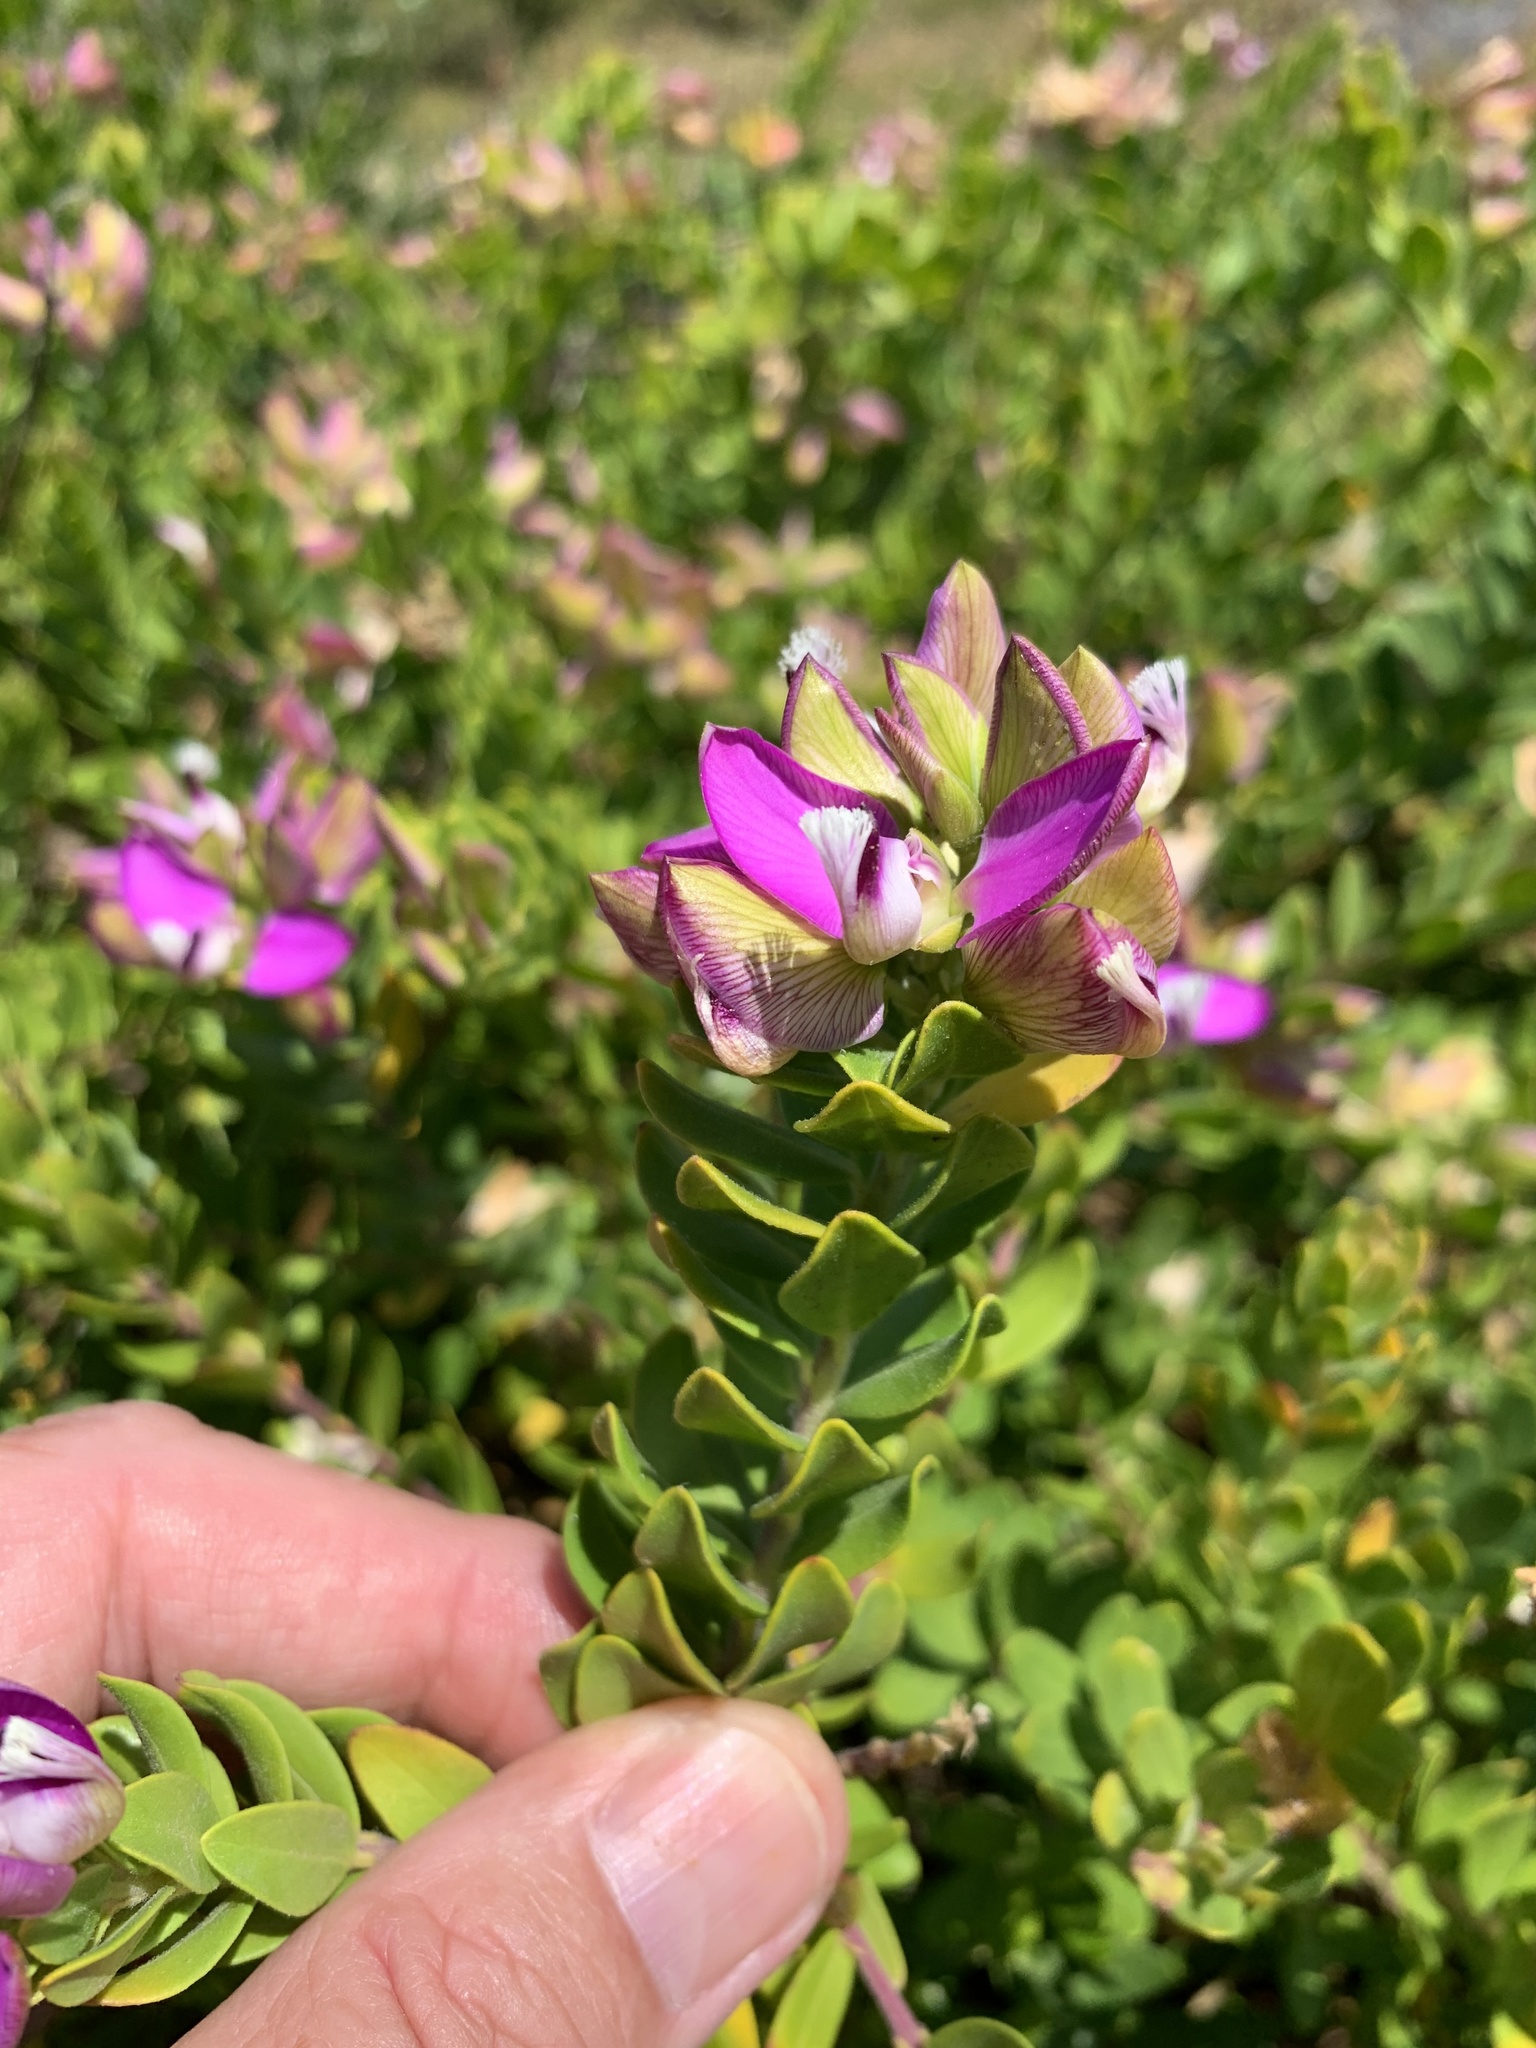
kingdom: Plantae
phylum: Tracheophyta
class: Magnoliopsida
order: Fabales
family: Polygalaceae
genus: Polygala
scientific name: Polygala myrtifolia
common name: Myrtle-leaf milkwort
